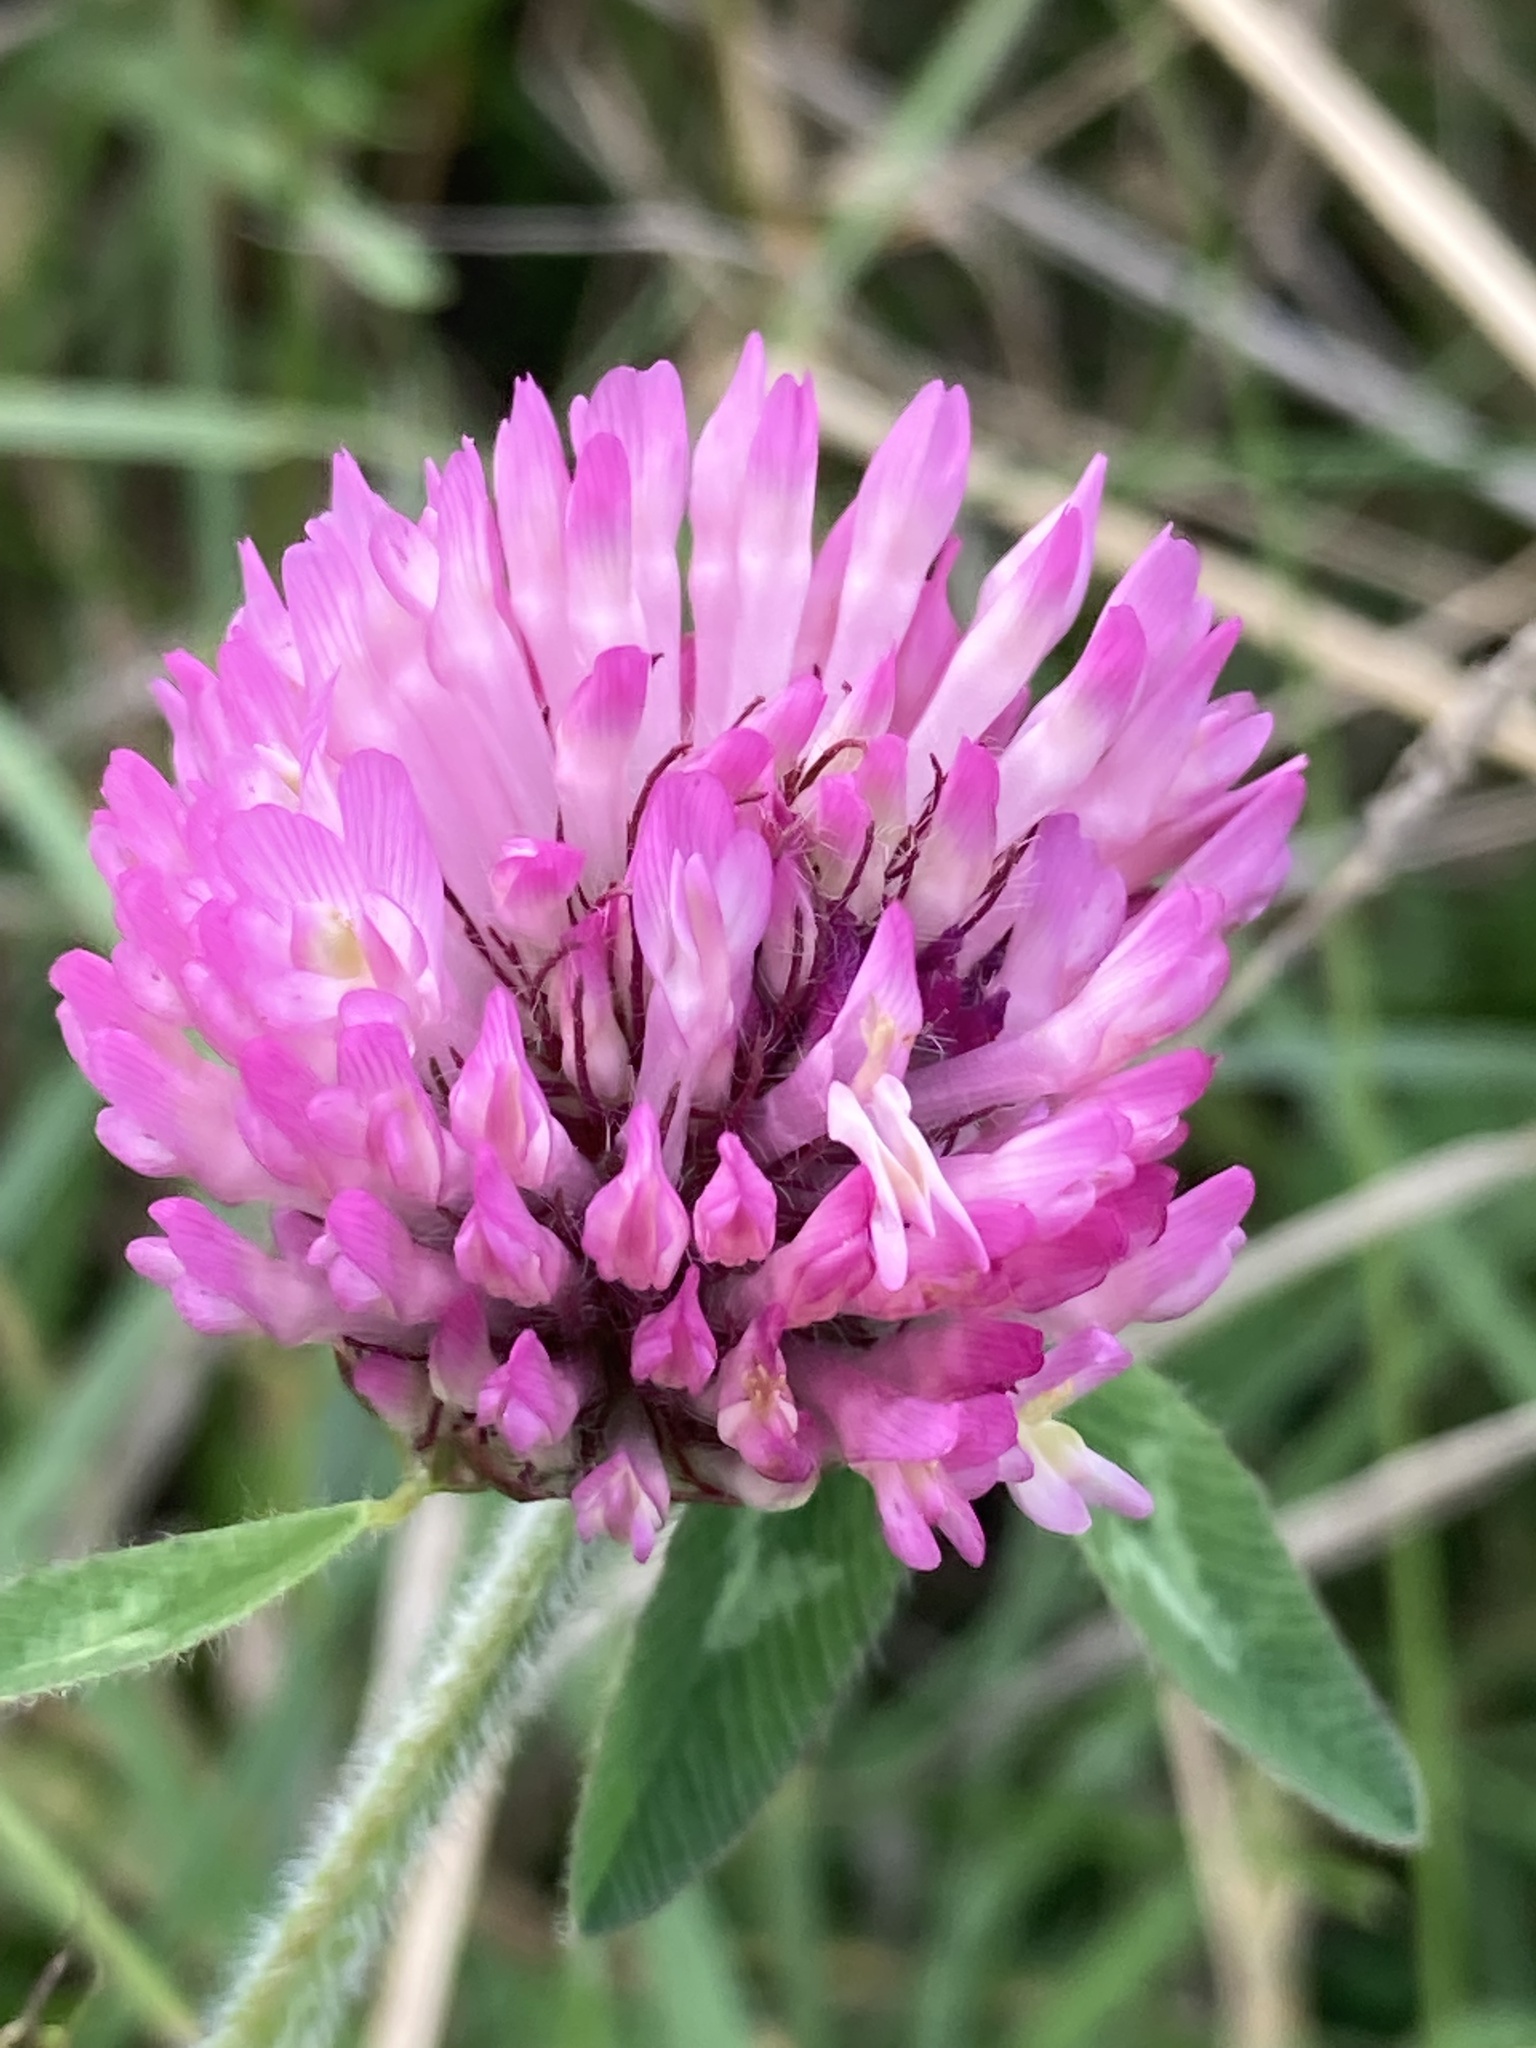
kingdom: Plantae
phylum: Tracheophyta
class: Magnoliopsida
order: Fabales
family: Fabaceae
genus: Trifolium
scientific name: Trifolium pratense
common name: Red clover
